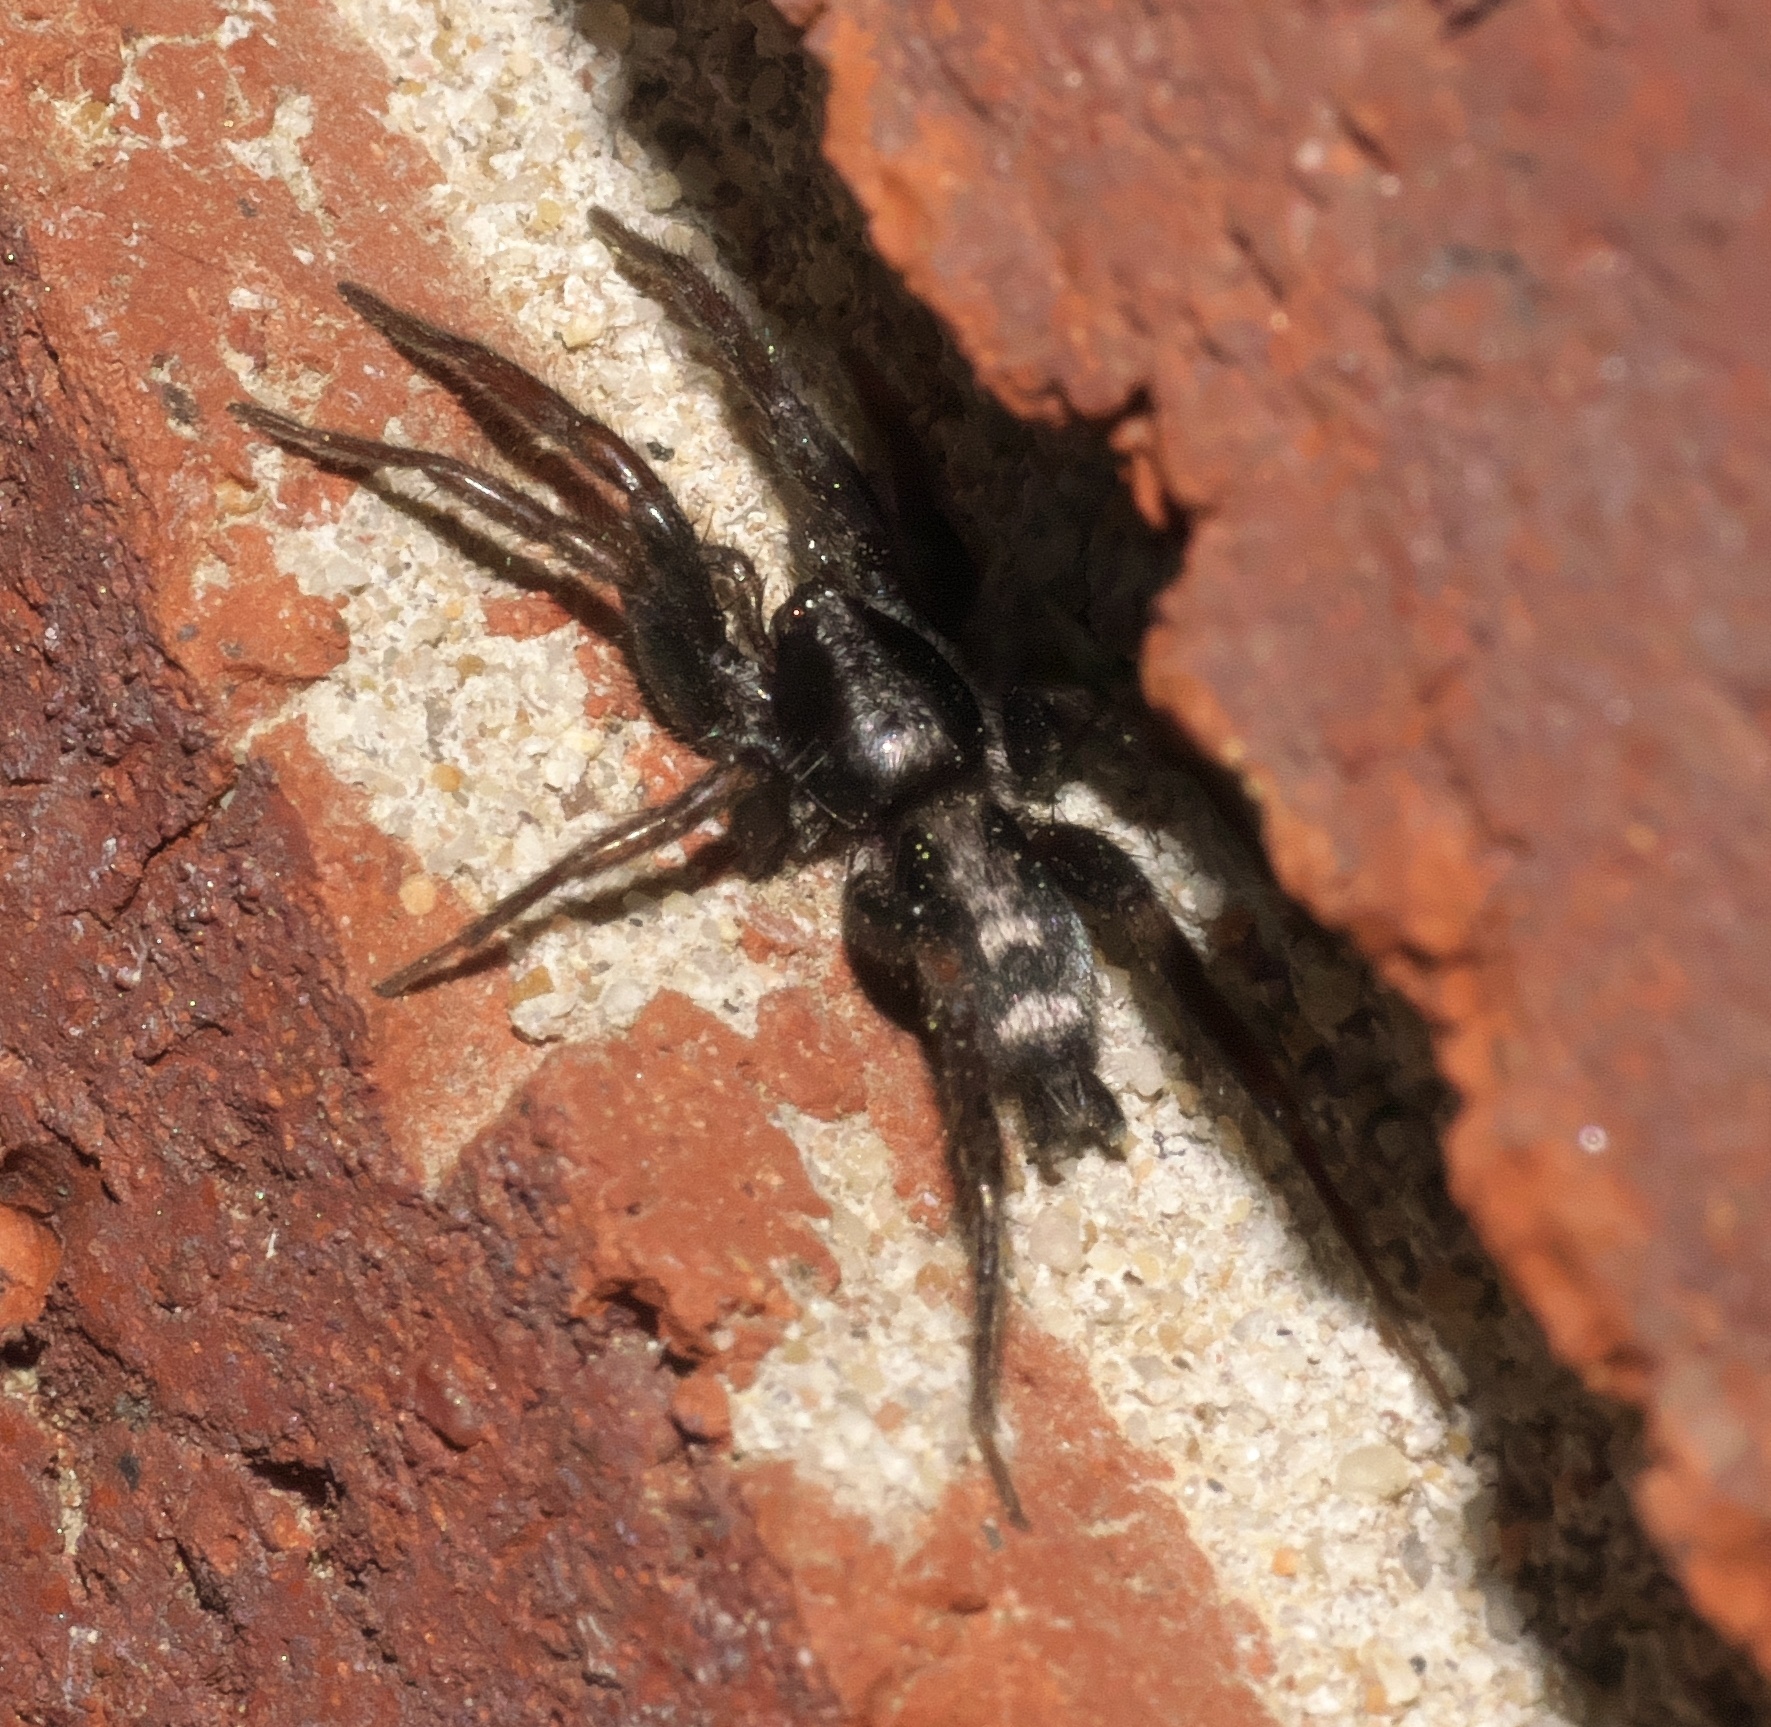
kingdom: Animalia
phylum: Arthropoda
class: Arachnida
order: Araneae
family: Gnaphosidae
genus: Herpyllus
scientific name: Herpyllus ecclesiasticus
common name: Eastern parson spider
